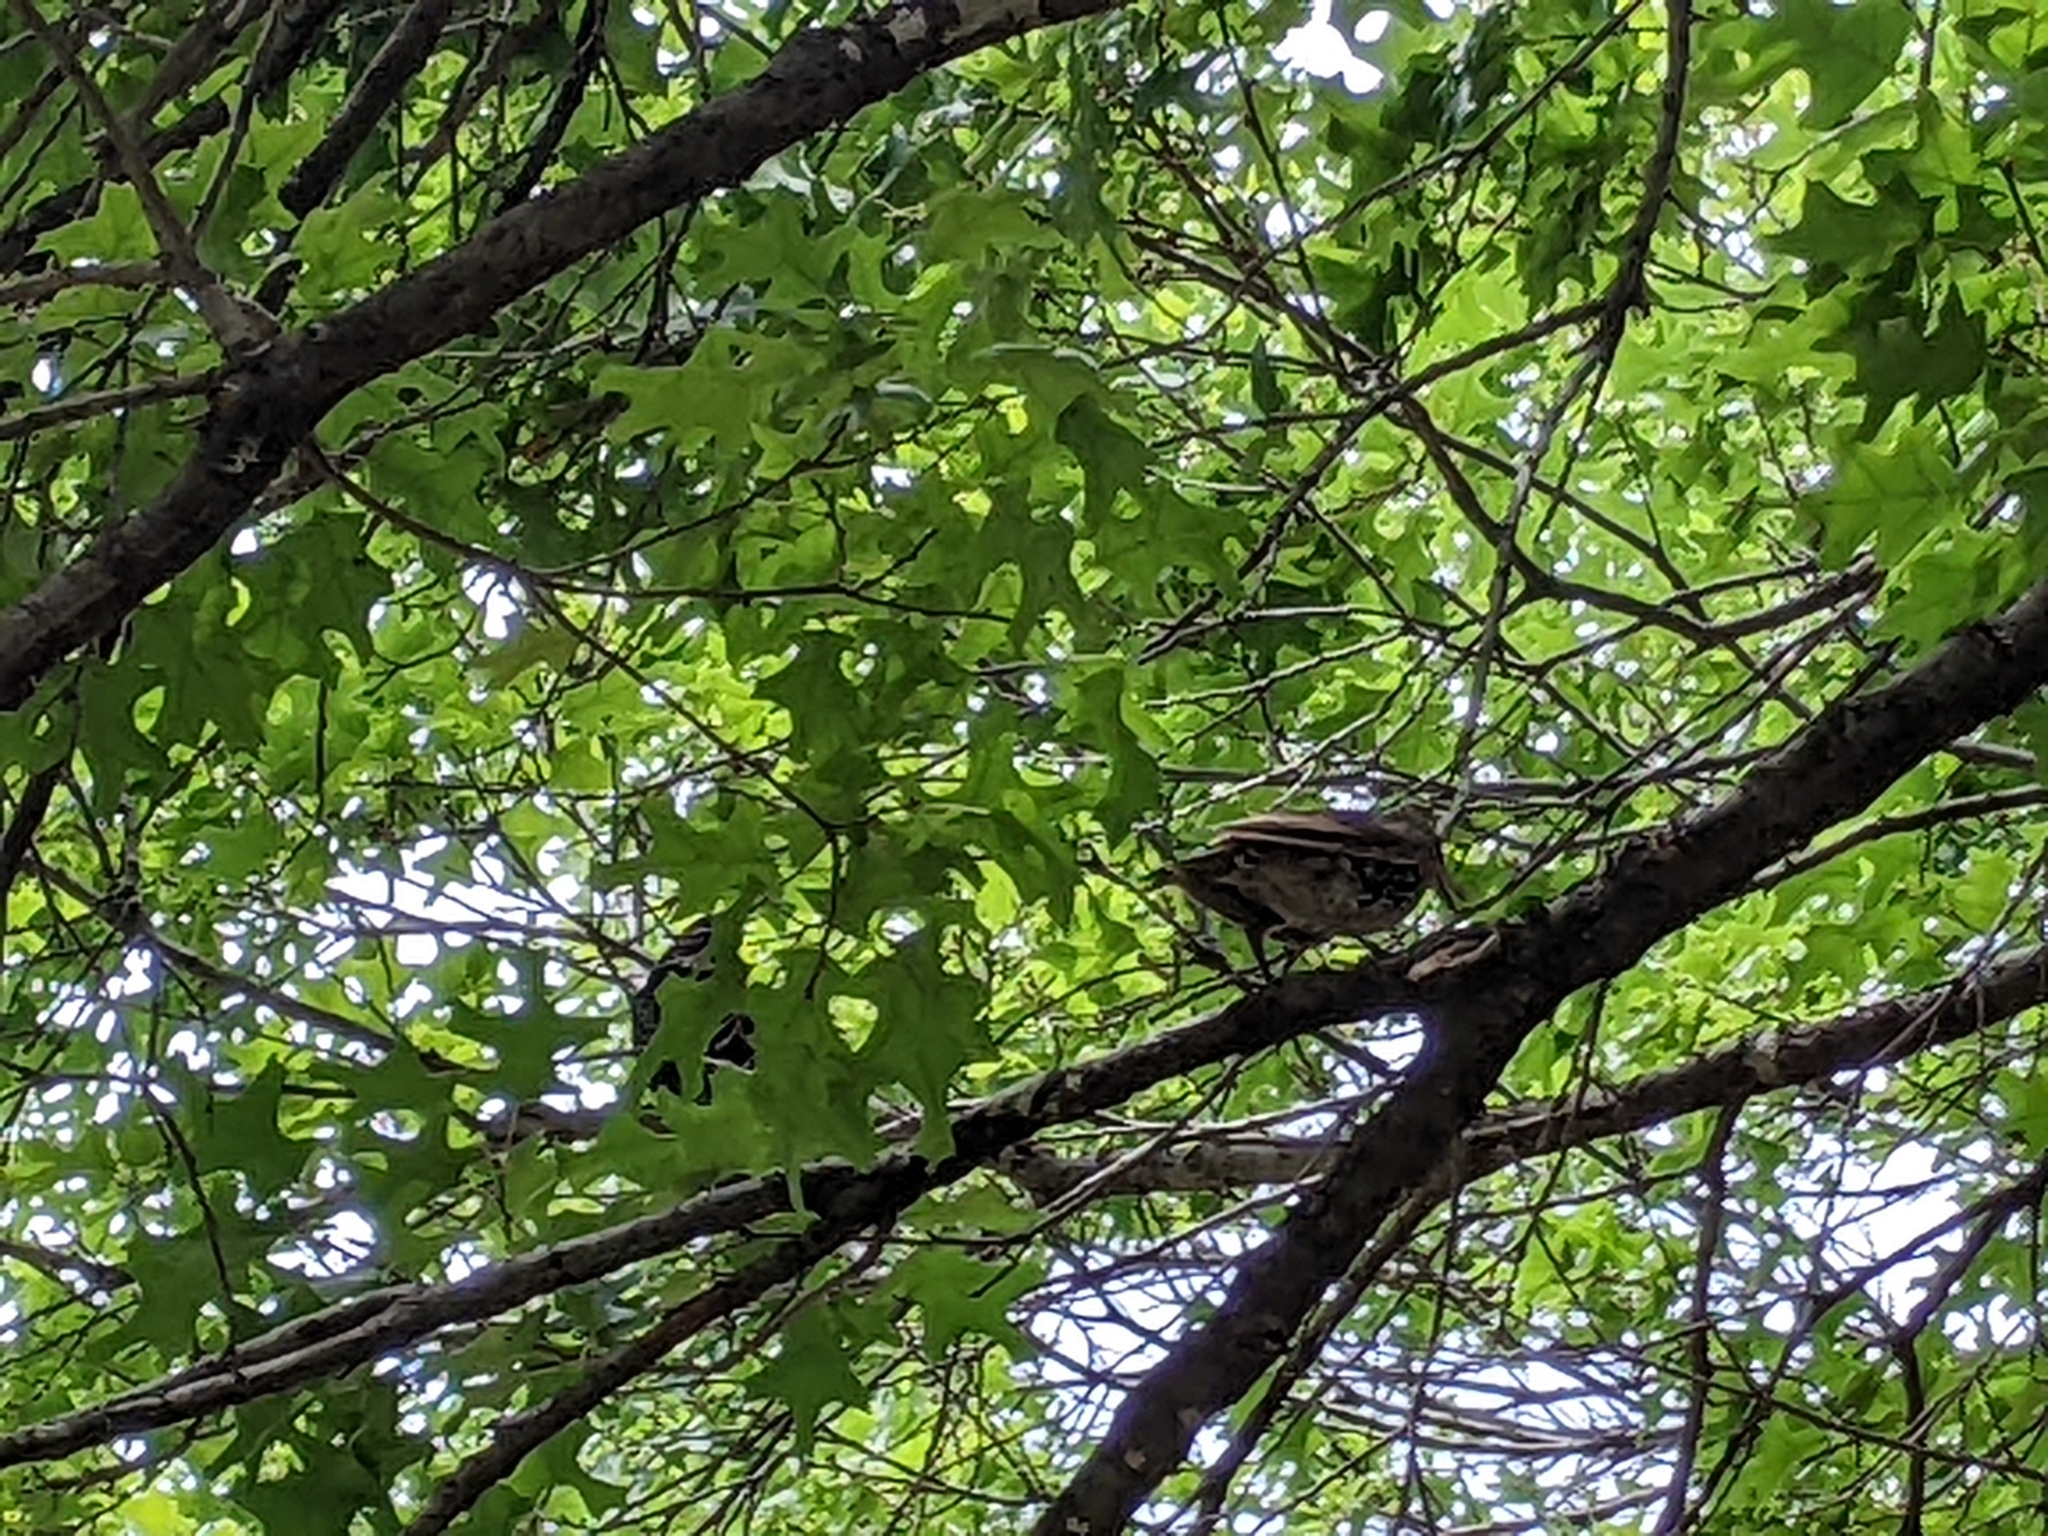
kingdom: Animalia
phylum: Chordata
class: Aves
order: Passeriformes
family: Sturnidae
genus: Sturnus
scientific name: Sturnus vulgaris
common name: Common starling
